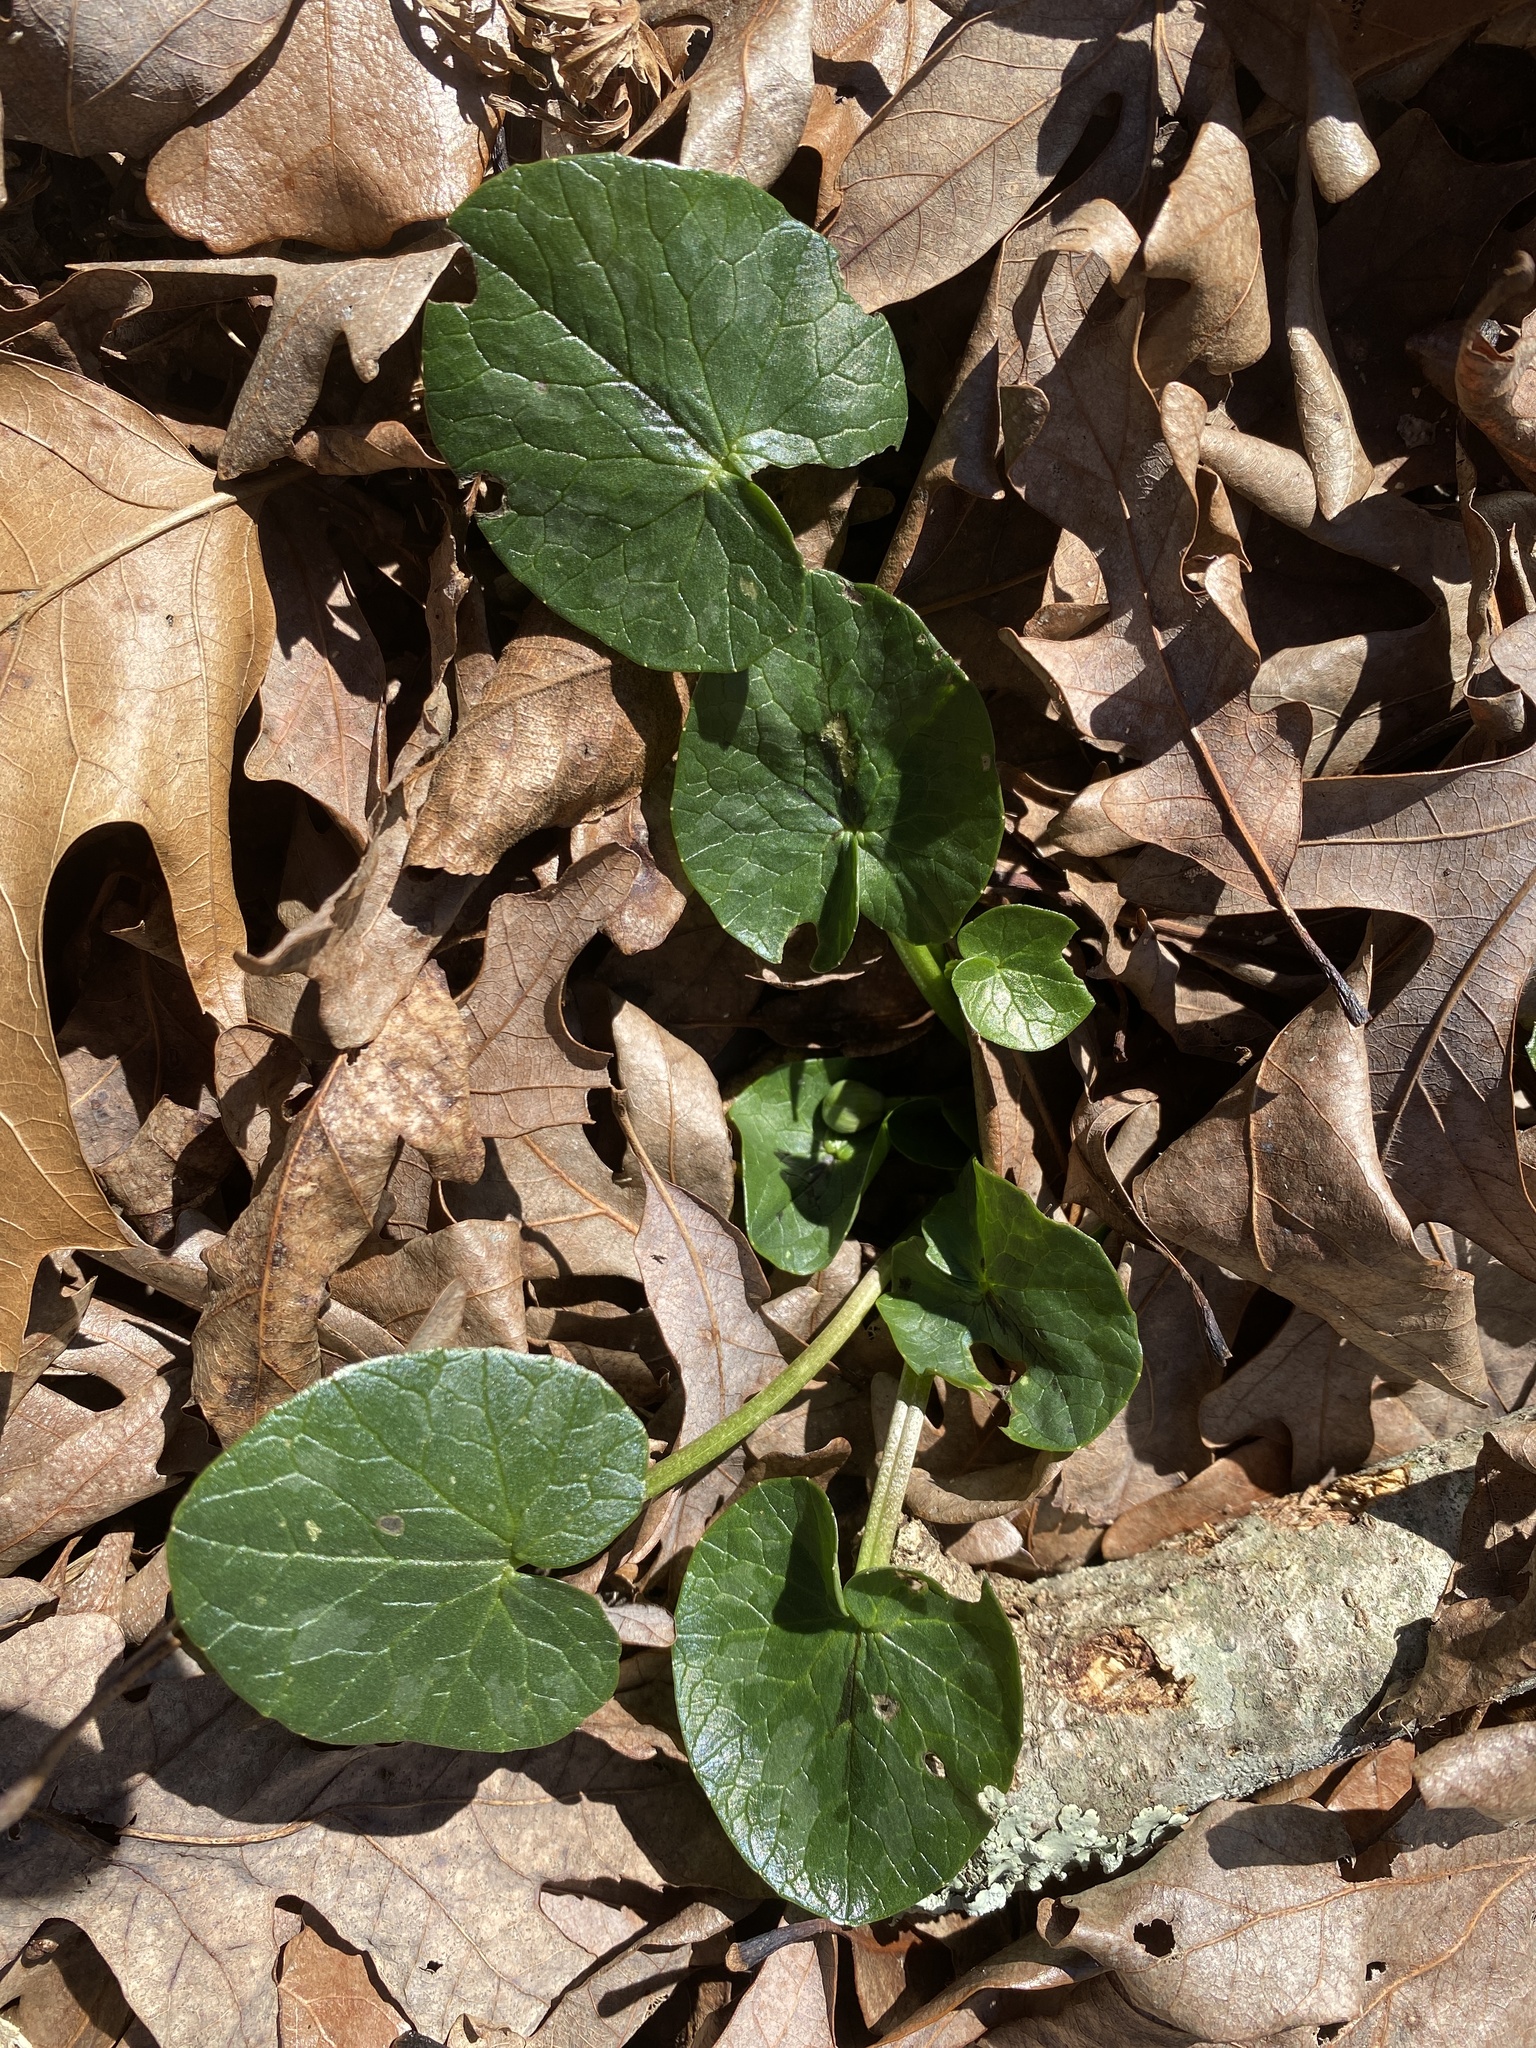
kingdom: Plantae
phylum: Tracheophyta
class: Magnoliopsida
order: Ranunculales
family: Ranunculaceae
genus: Ficaria
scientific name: Ficaria verna
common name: Lesser celandine
